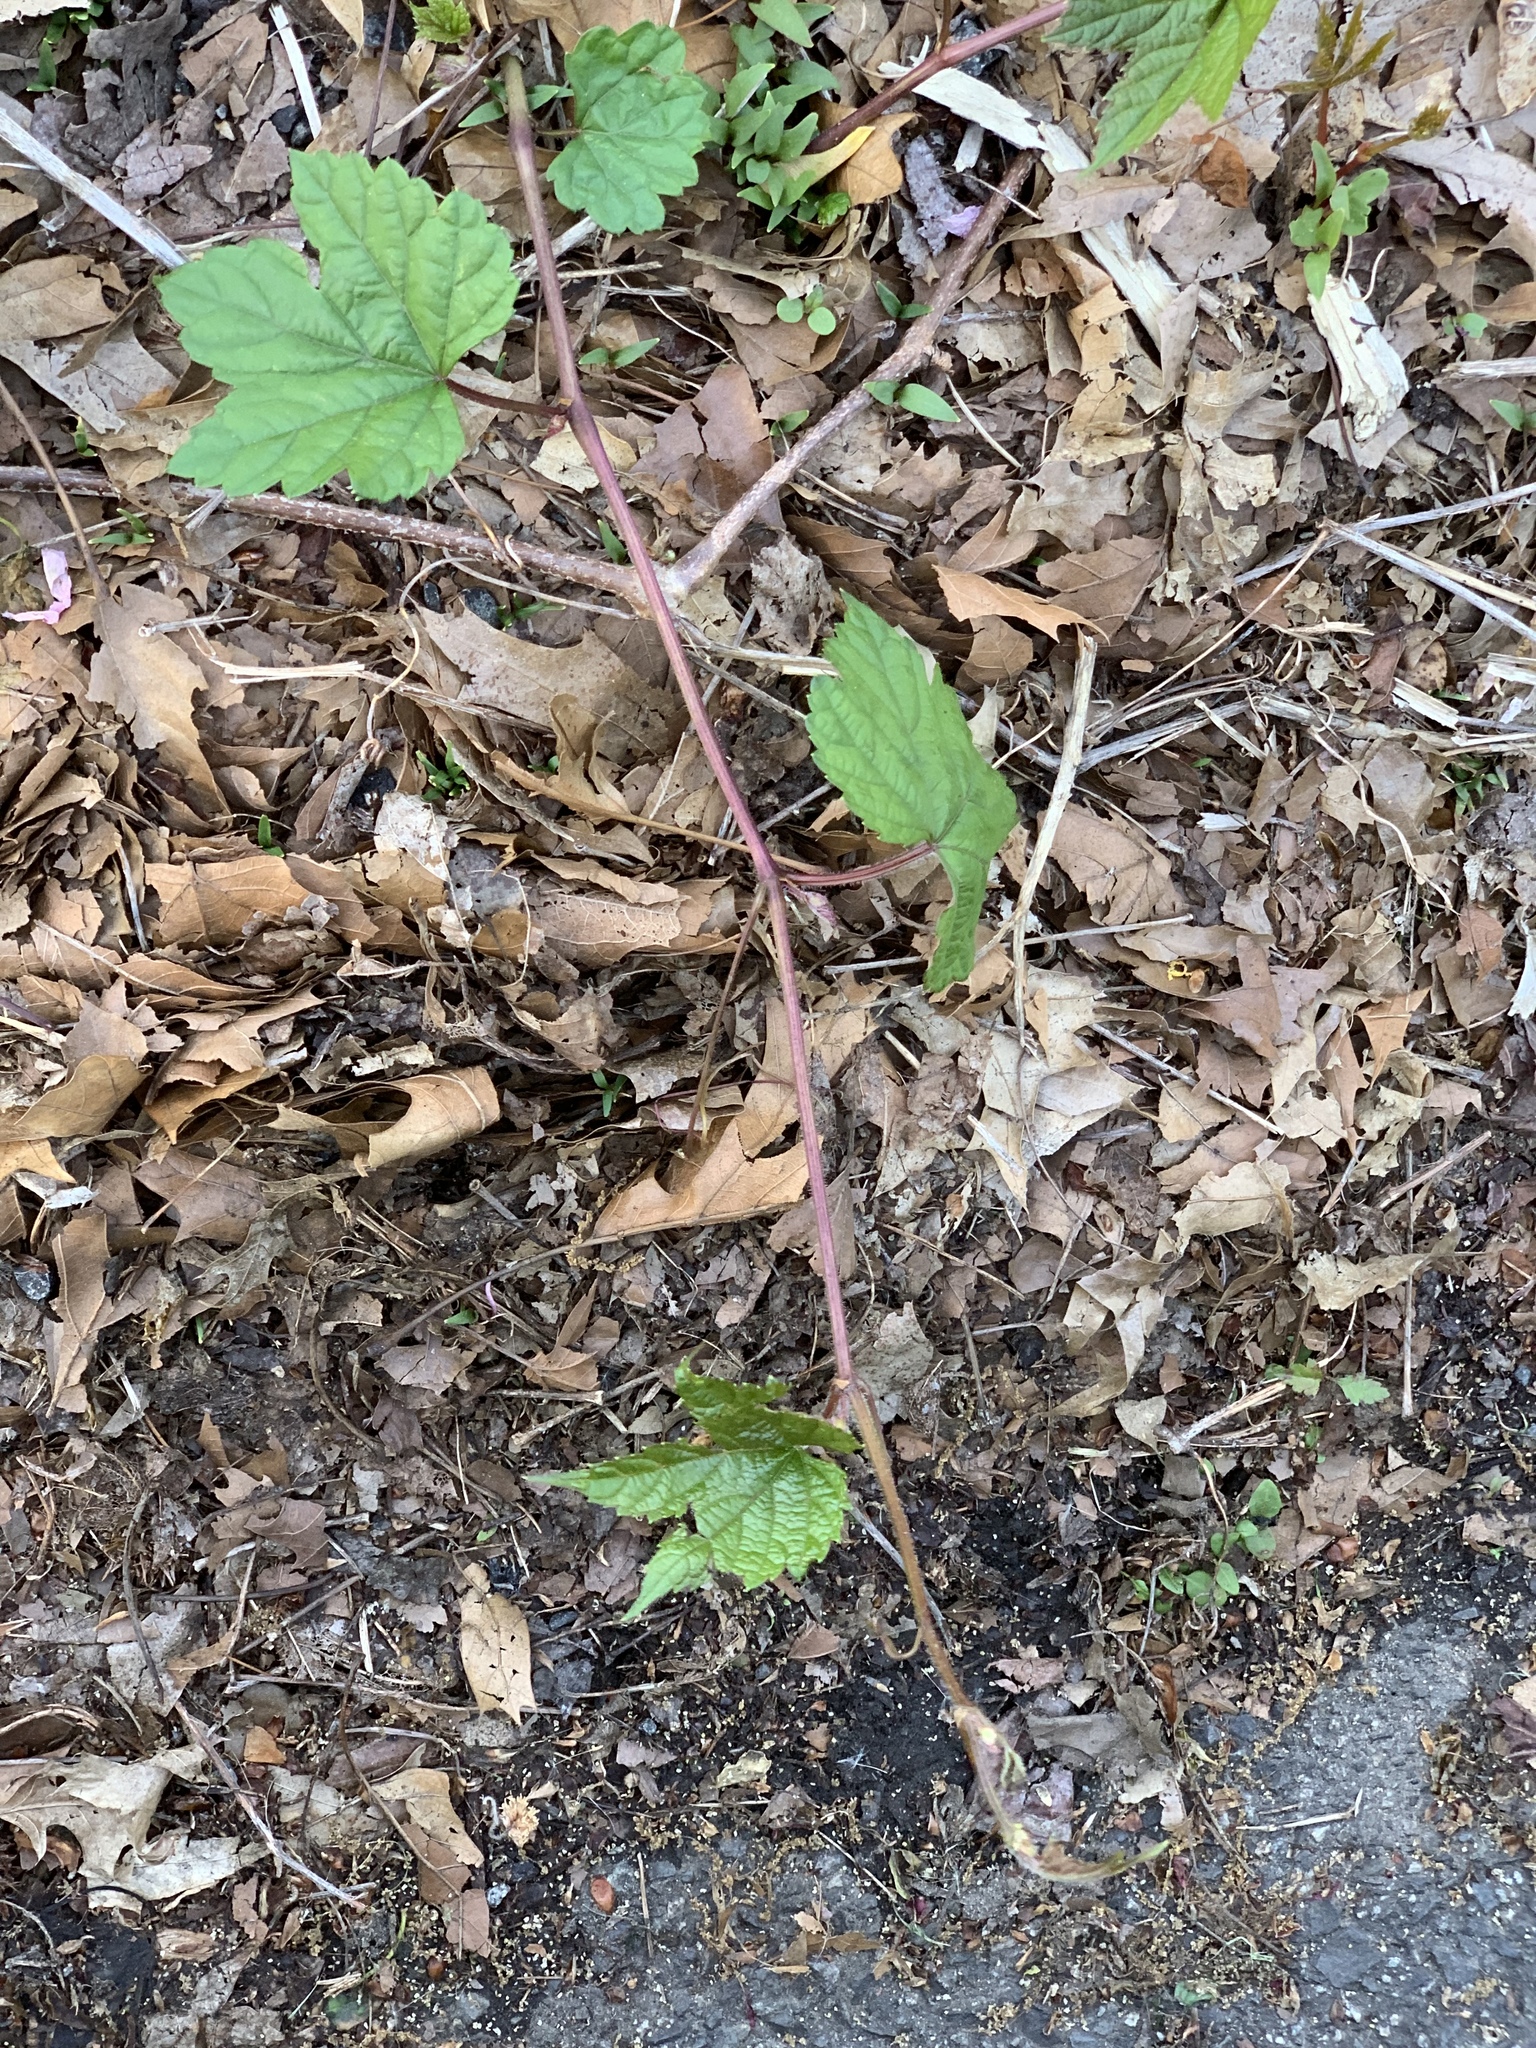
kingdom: Plantae
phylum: Tracheophyta
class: Magnoliopsida
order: Vitales
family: Vitaceae
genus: Ampelopsis
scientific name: Ampelopsis glandulosa
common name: Amur peppervine
